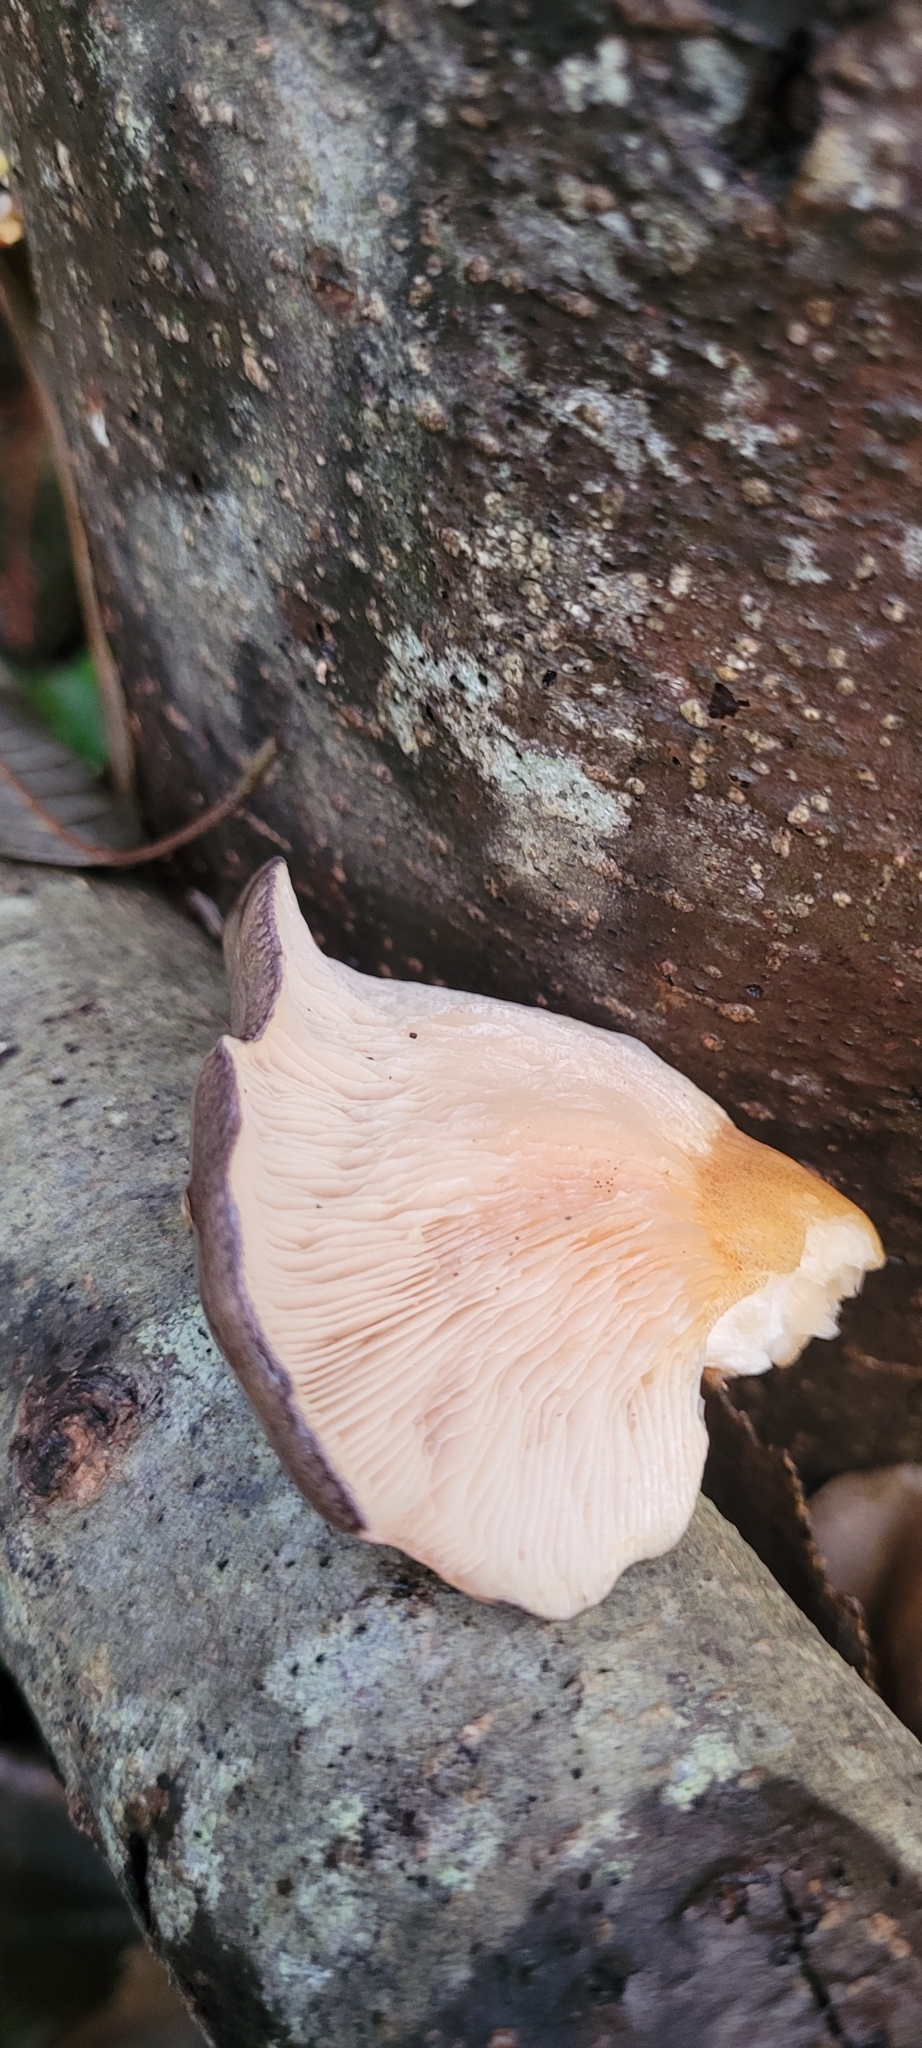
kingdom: Fungi
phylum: Basidiomycota
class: Agaricomycetes
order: Agaricales
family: Sarcomyxaceae
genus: Sarcomyxa
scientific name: Sarcomyxa serotina
